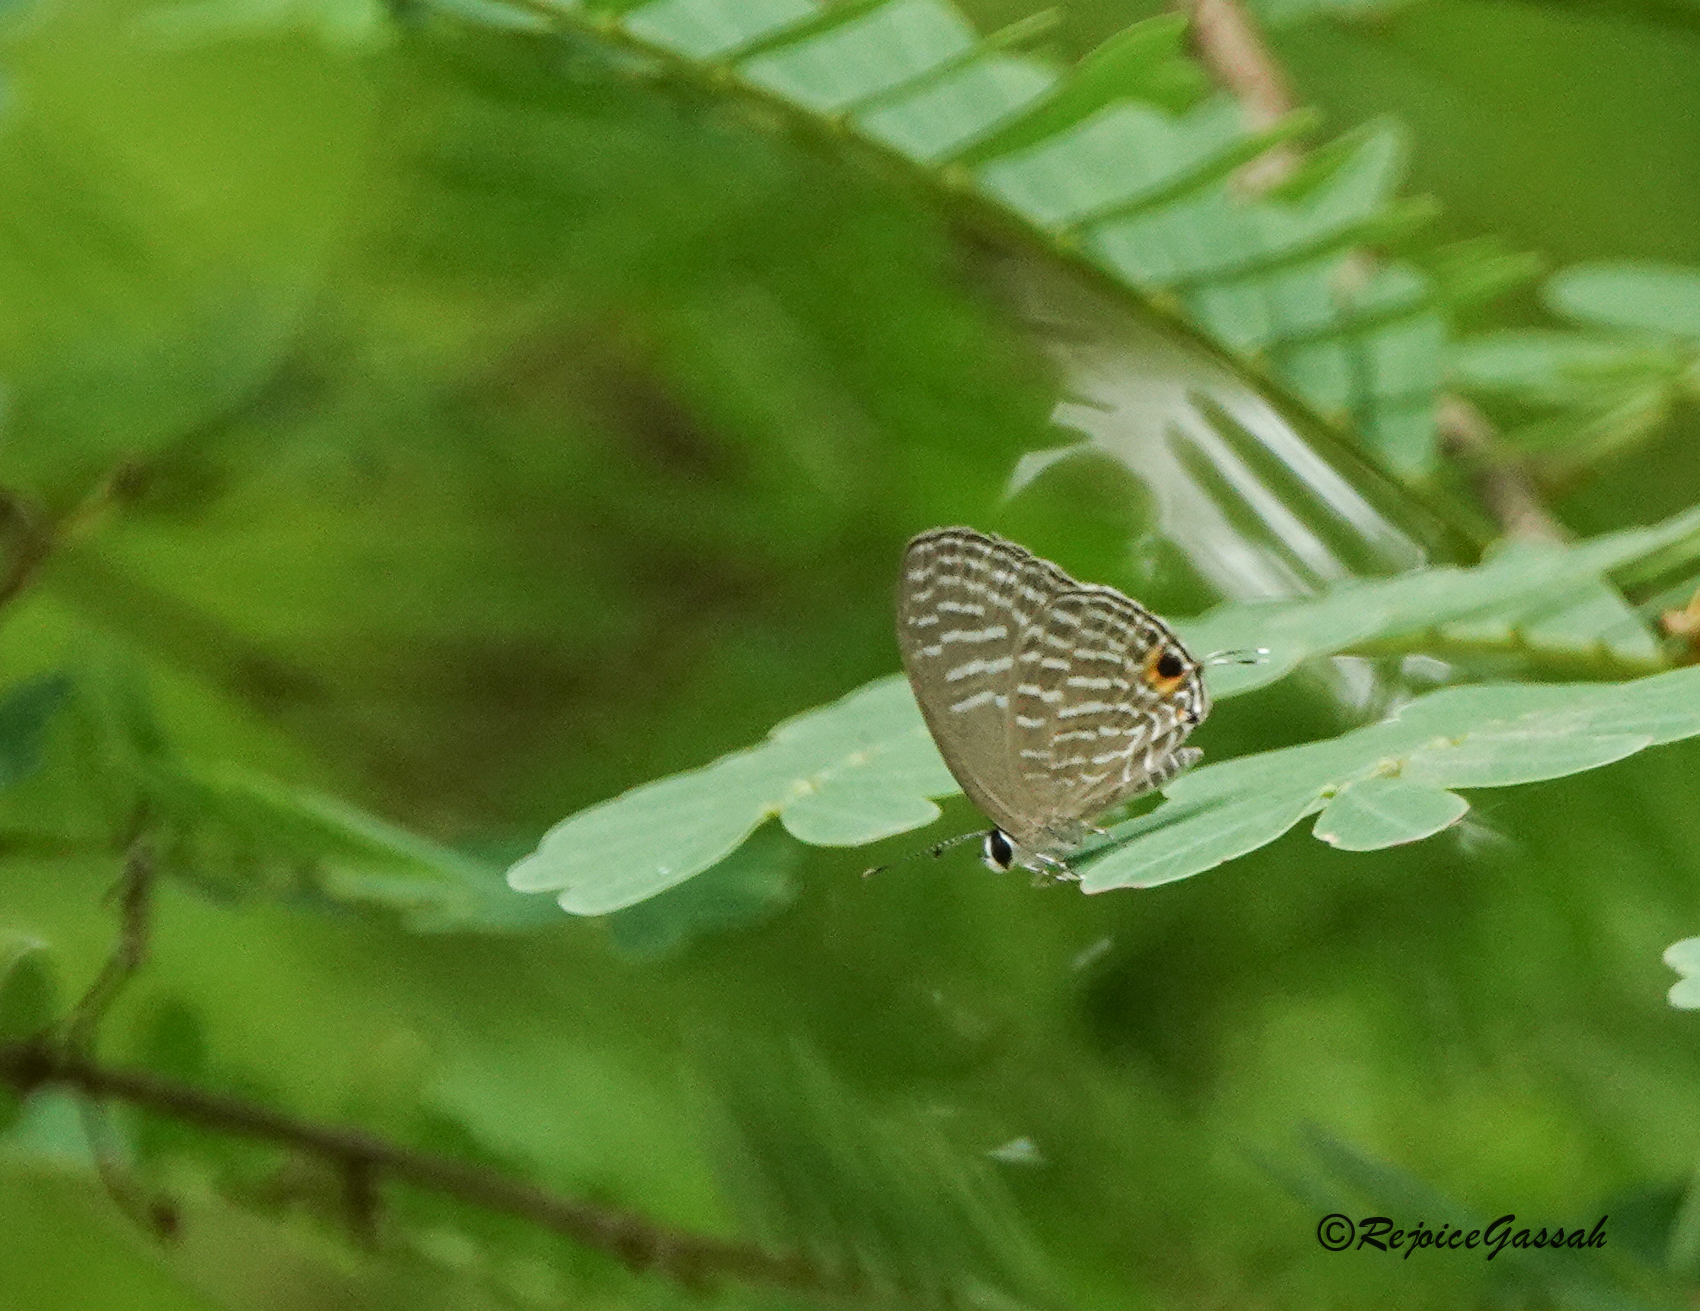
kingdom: Animalia
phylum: Arthropoda
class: Insecta
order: Lepidoptera
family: Lycaenidae
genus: Jamides
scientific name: Jamides alecto
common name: Metallic cerulean
